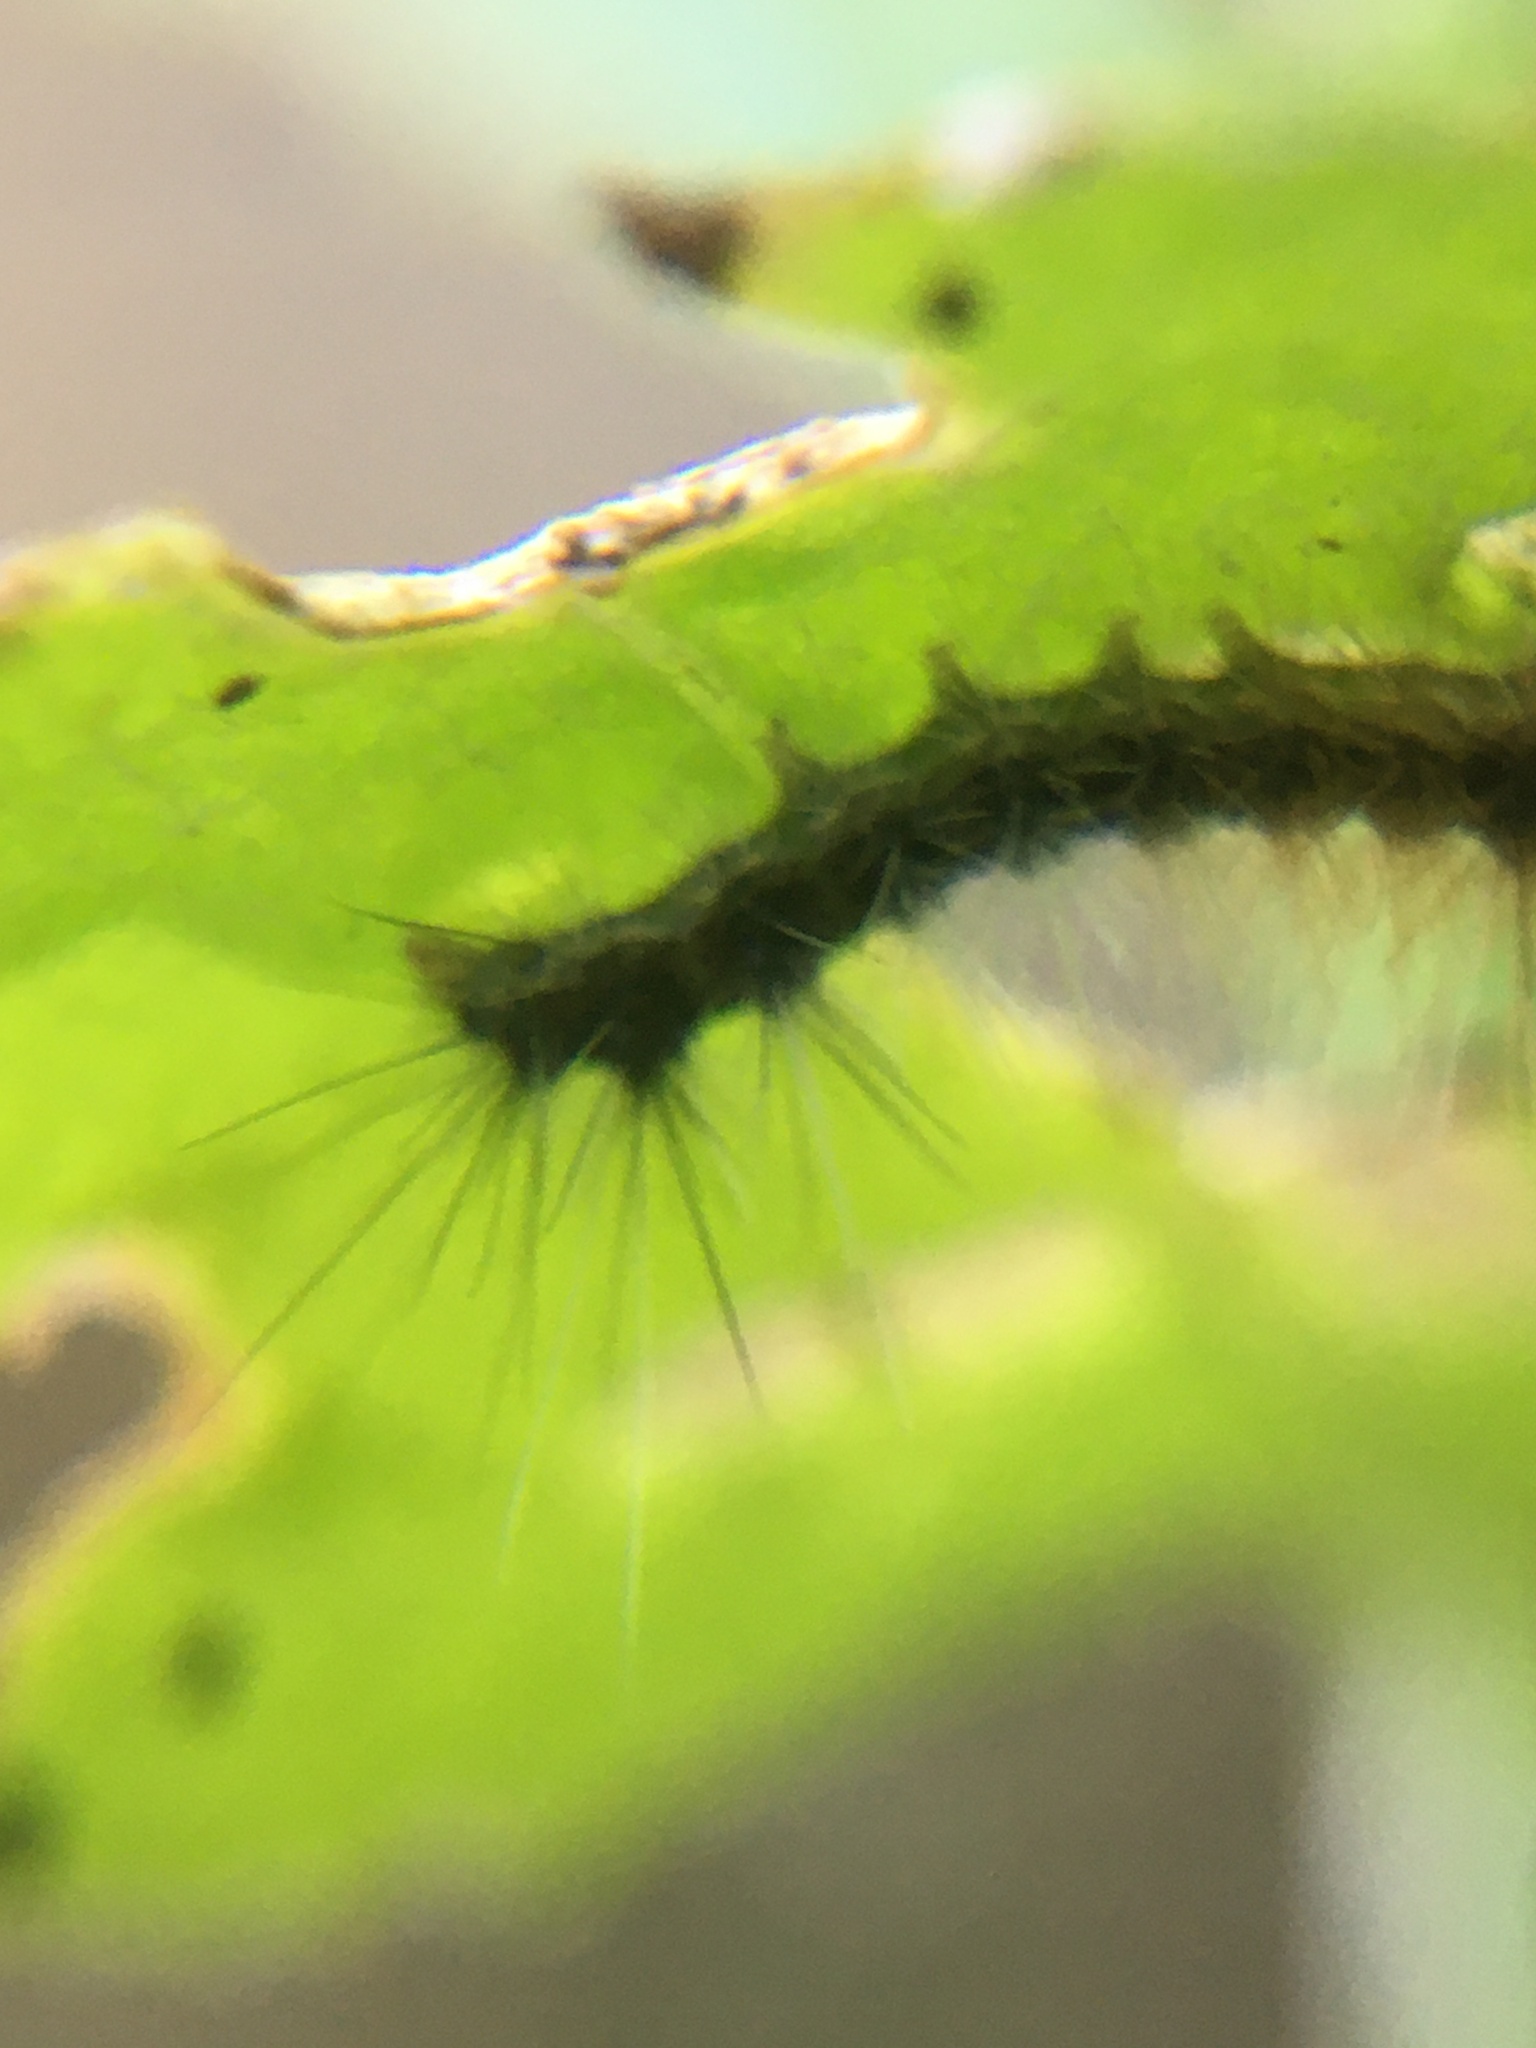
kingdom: Animalia
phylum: Arthropoda
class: Insecta
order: Lepidoptera
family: Erebidae
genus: Rhodogastria
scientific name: Rhodogastria amasis
